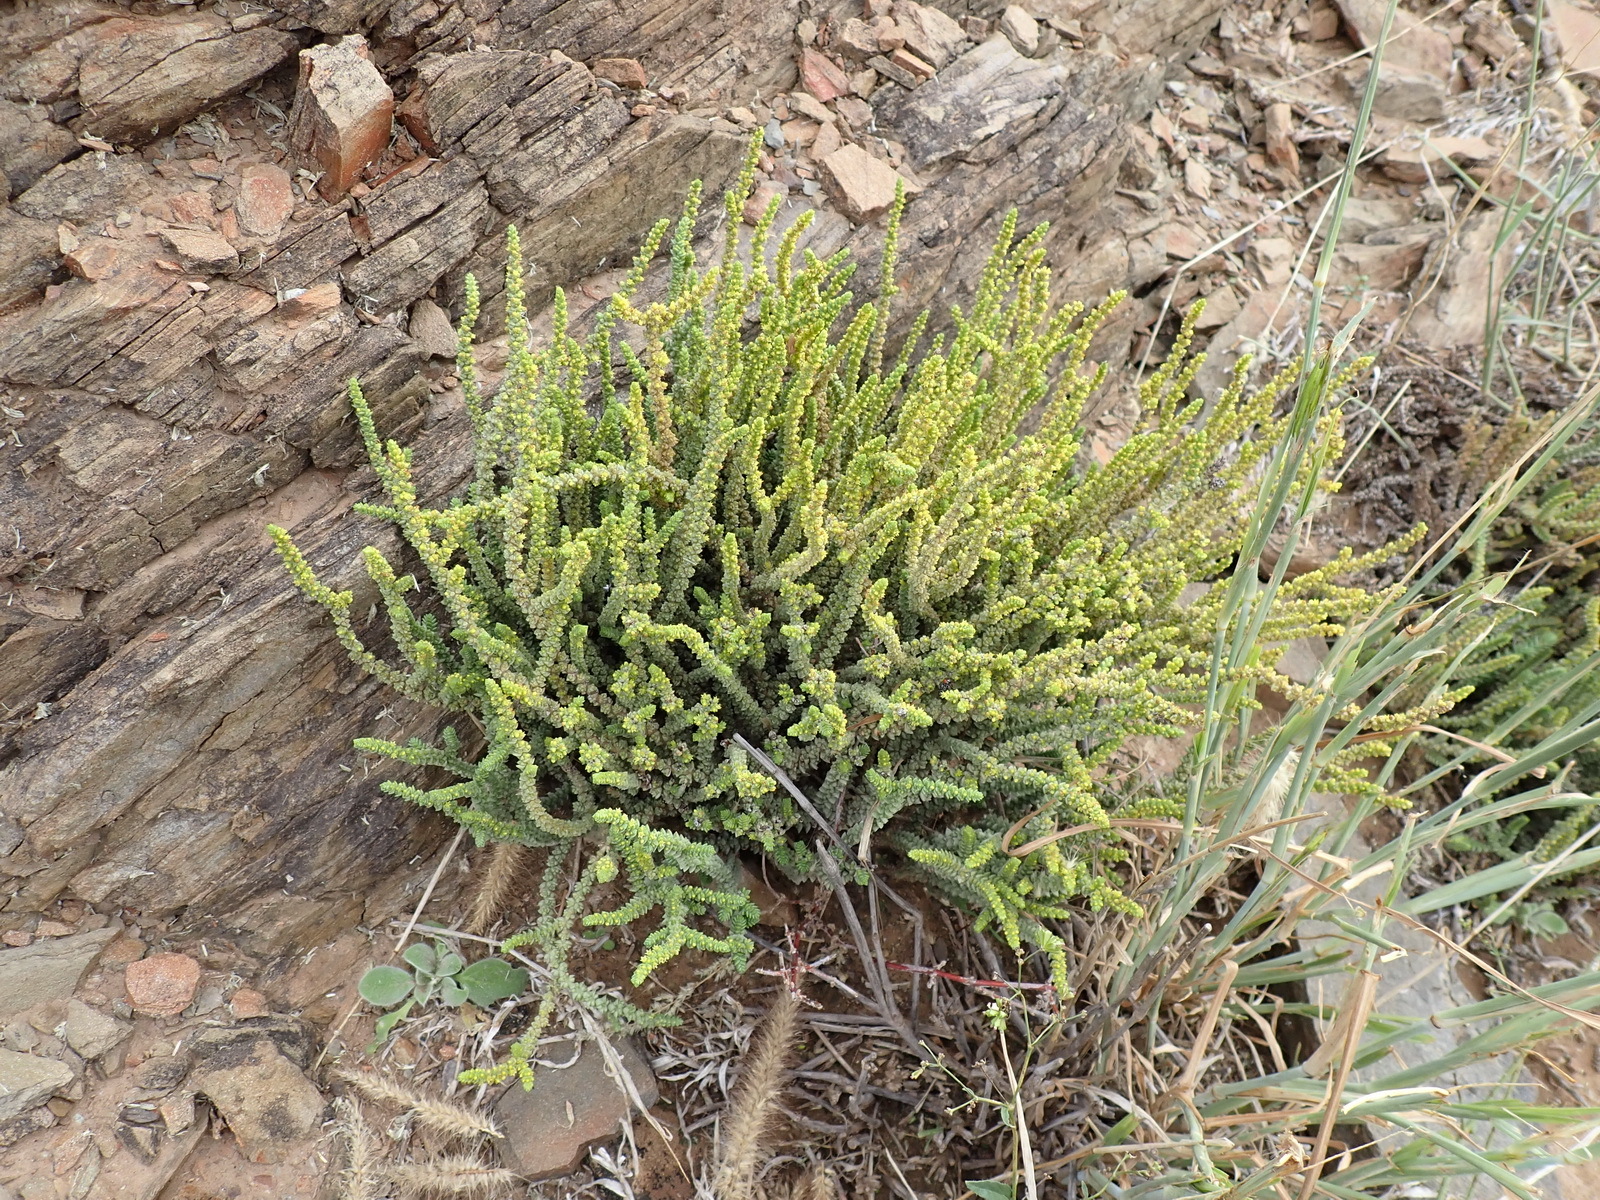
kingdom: Plantae
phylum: Tracheophyta
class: Magnoliopsida
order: Saxifragales
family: Crassulaceae
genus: Crassula
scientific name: Crassula muscosa
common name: Toy-cypress
